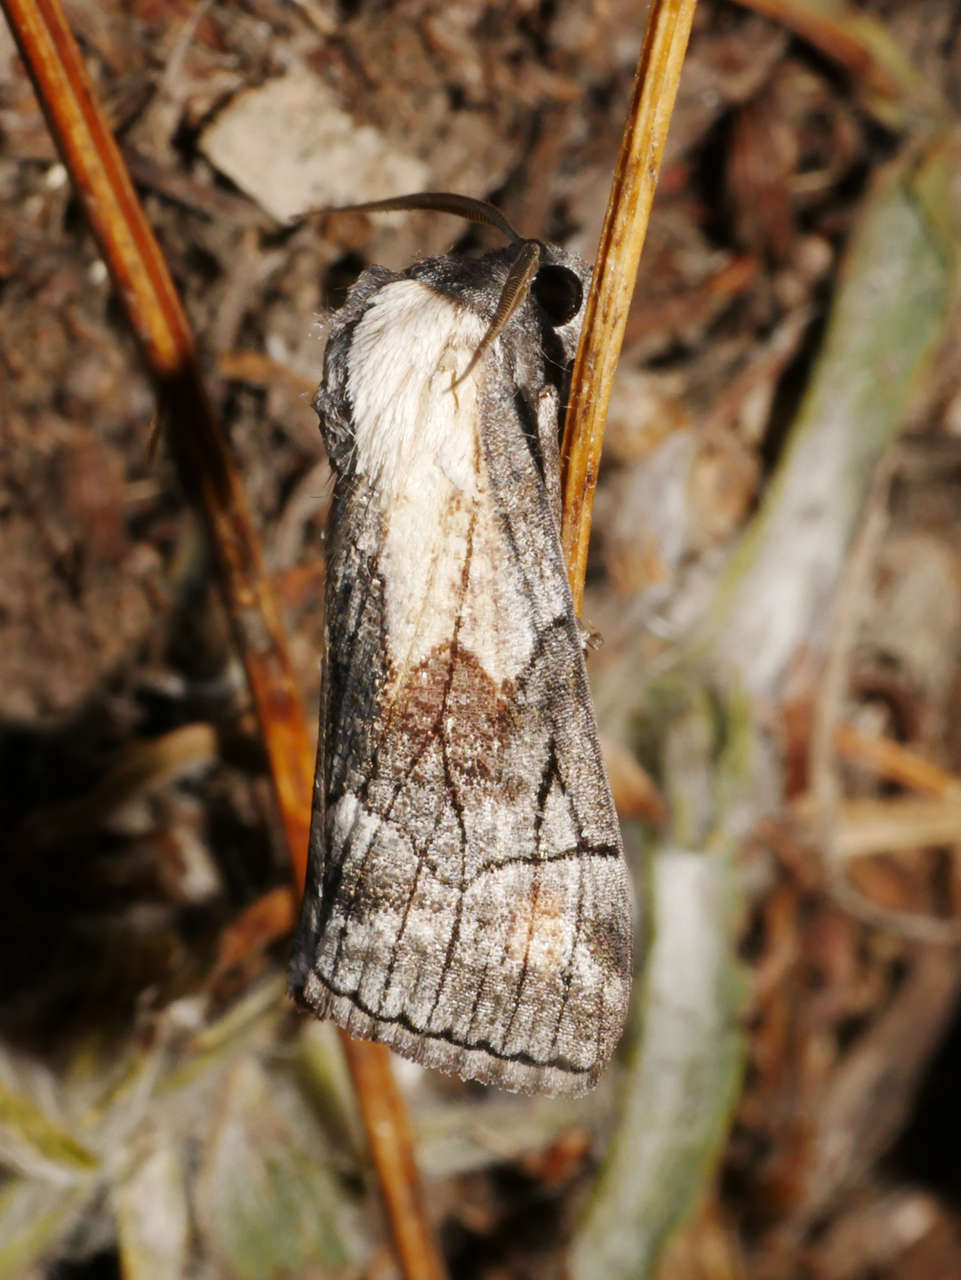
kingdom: Animalia
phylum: Arthropoda
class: Insecta
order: Lepidoptera
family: Geometridae
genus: Stibaractis
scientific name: Stibaractis melanotoxa
